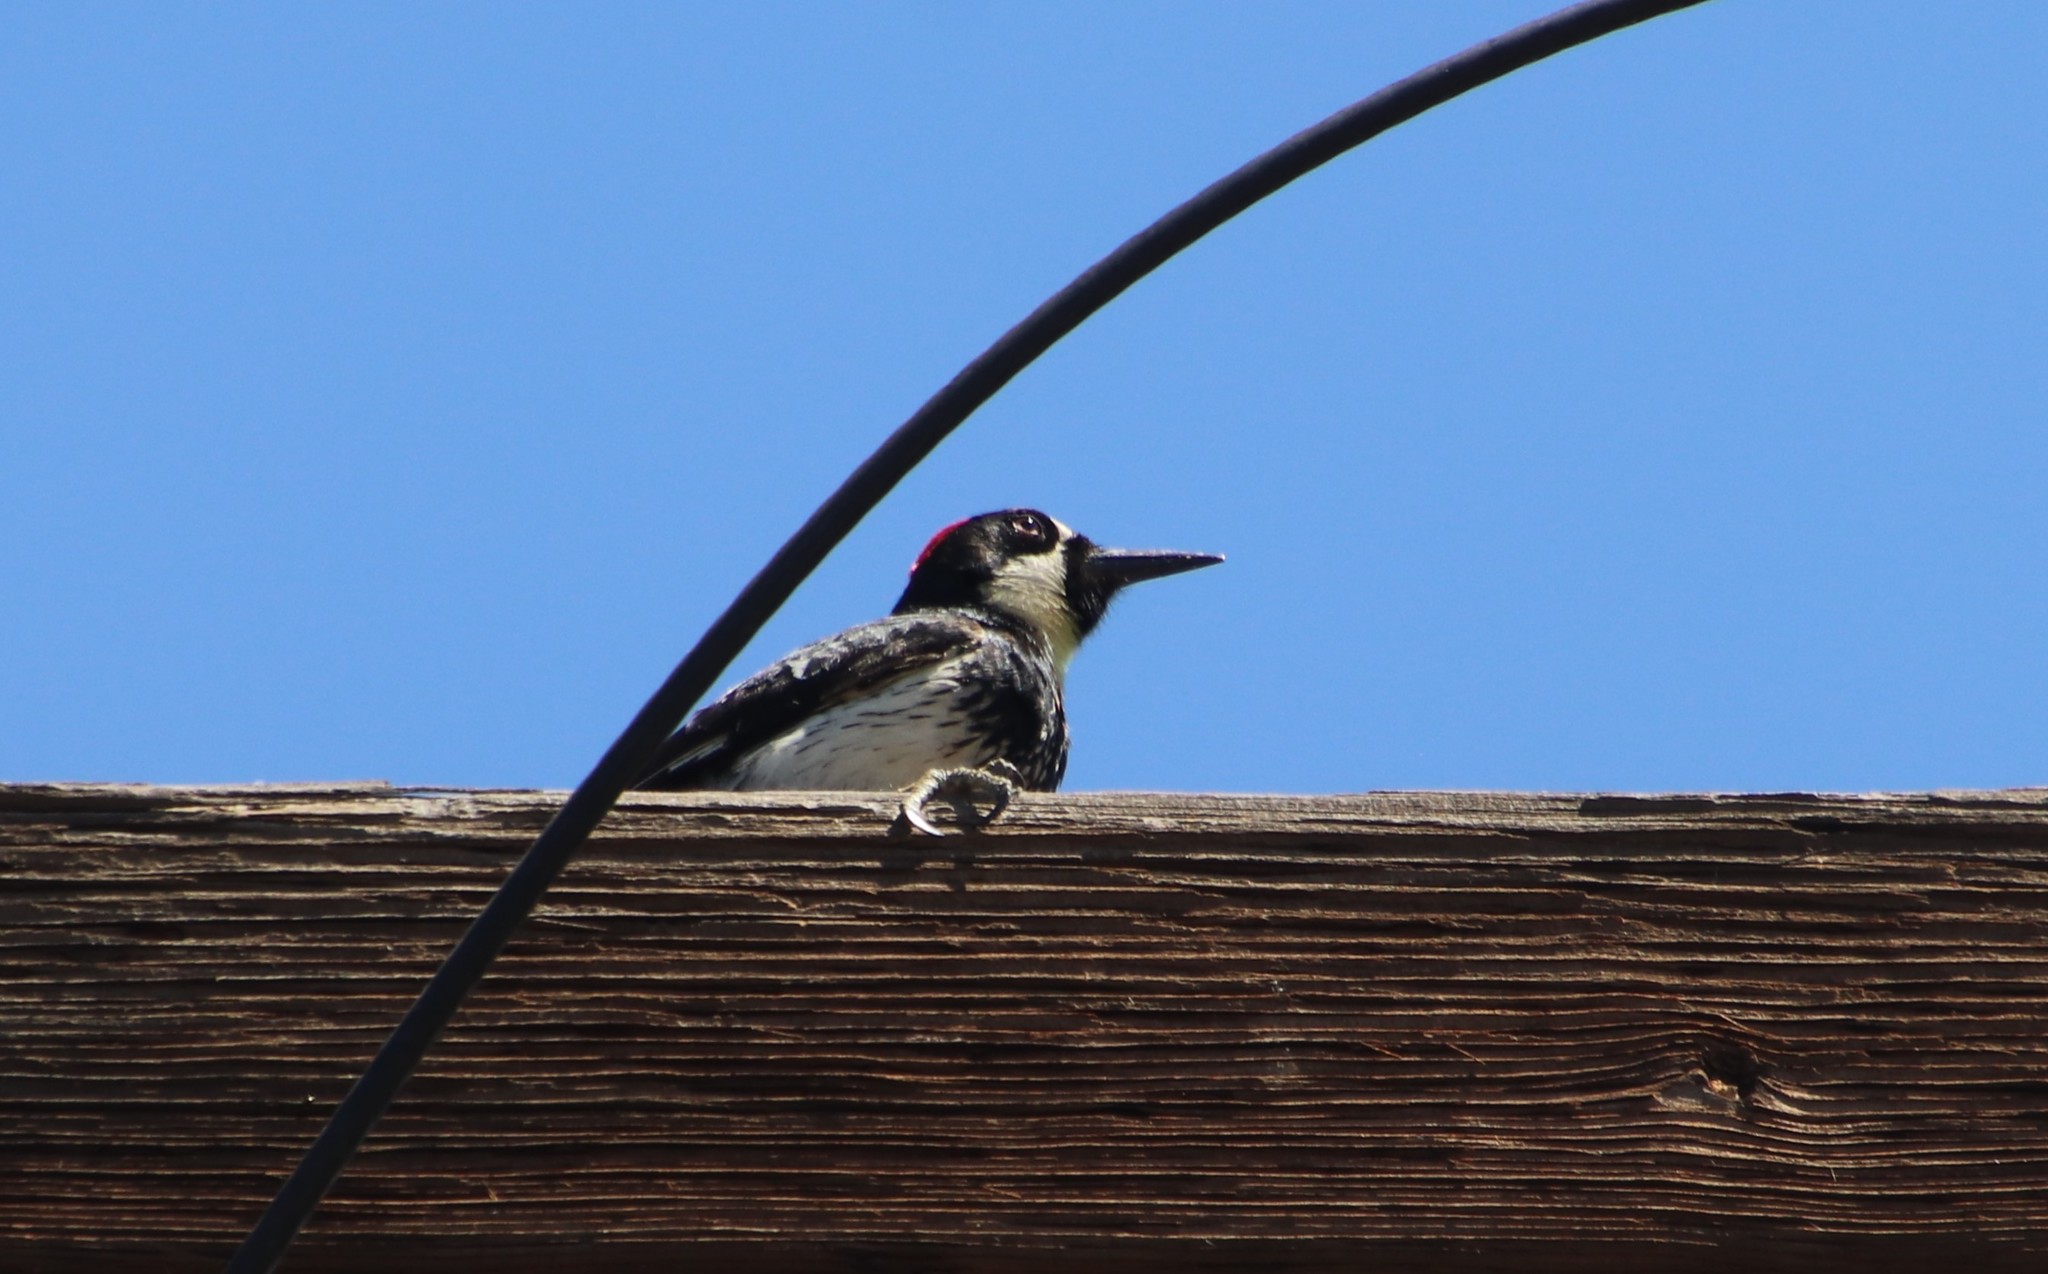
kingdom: Animalia
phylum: Chordata
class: Aves
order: Piciformes
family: Picidae
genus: Melanerpes
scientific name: Melanerpes formicivorus
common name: Acorn woodpecker
